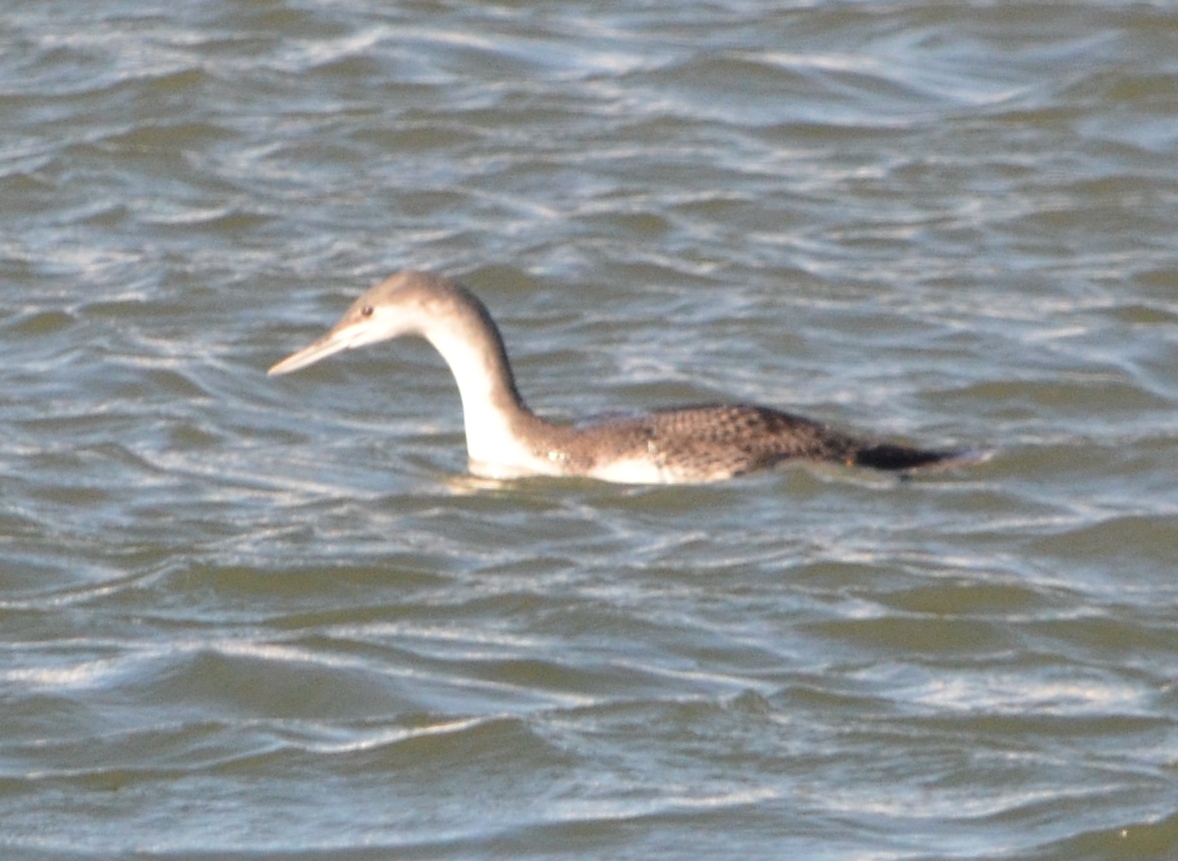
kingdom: Animalia
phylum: Chordata
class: Aves
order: Gaviiformes
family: Gaviidae
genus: Gavia
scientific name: Gavia stellata
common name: Red-throated loon
